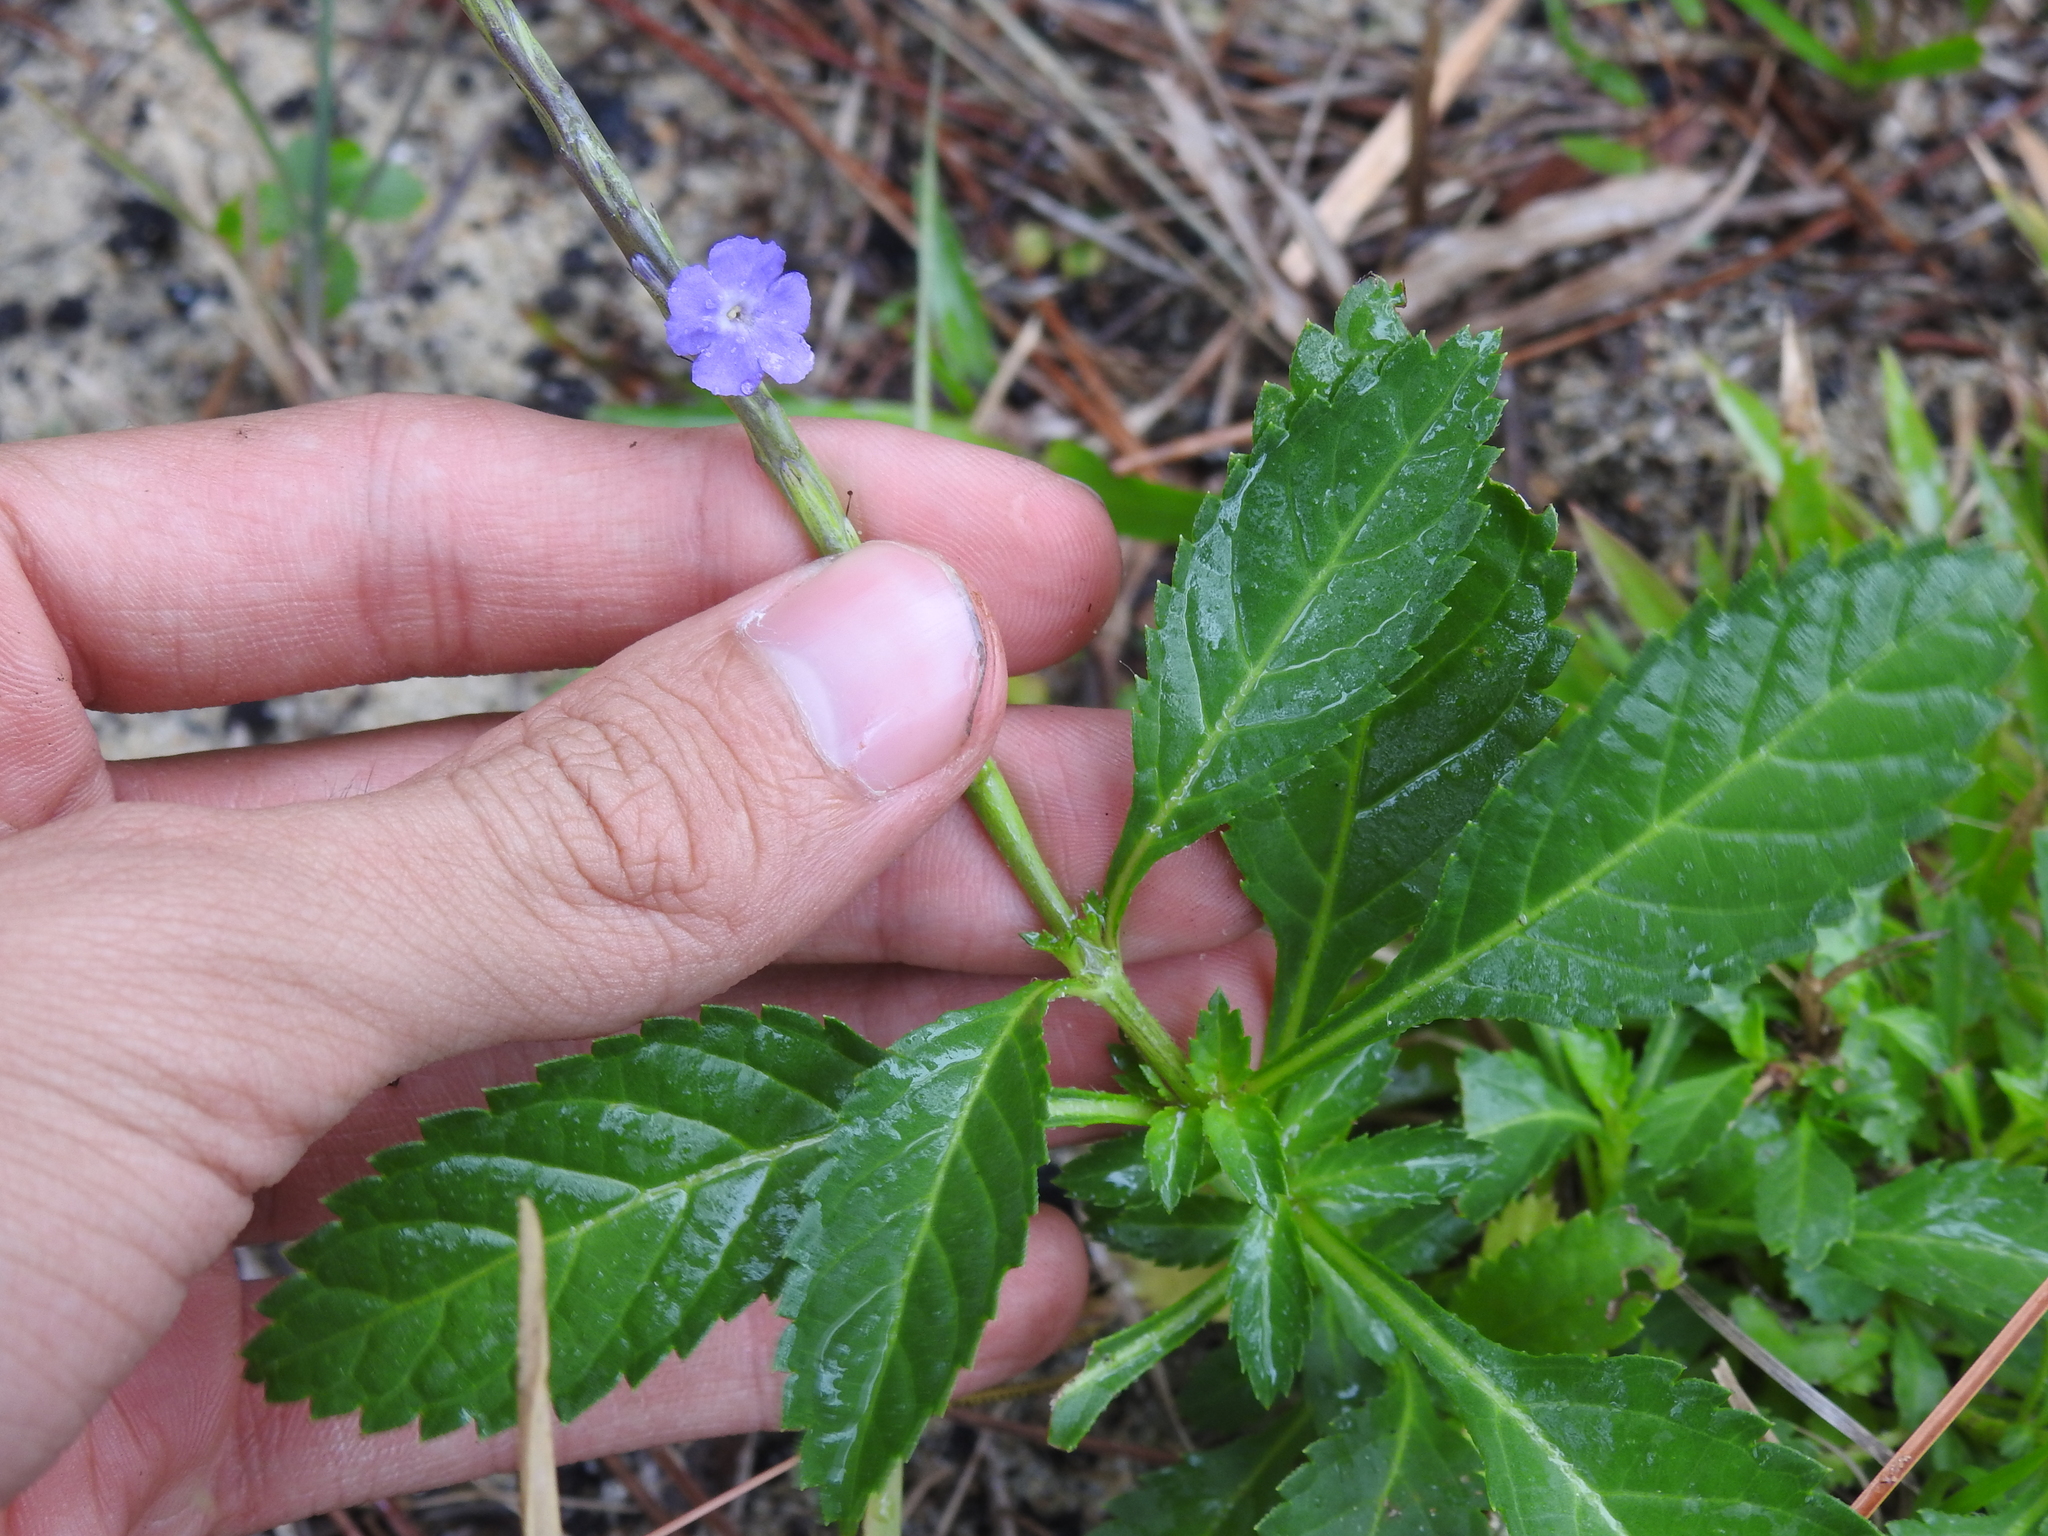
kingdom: Plantae
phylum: Tracheophyta
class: Magnoliopsida
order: Lamiales
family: Verbenaceae
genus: Stachytarpheta
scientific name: Stachytarpheta jamaicensis
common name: Light-blue snakeweed
